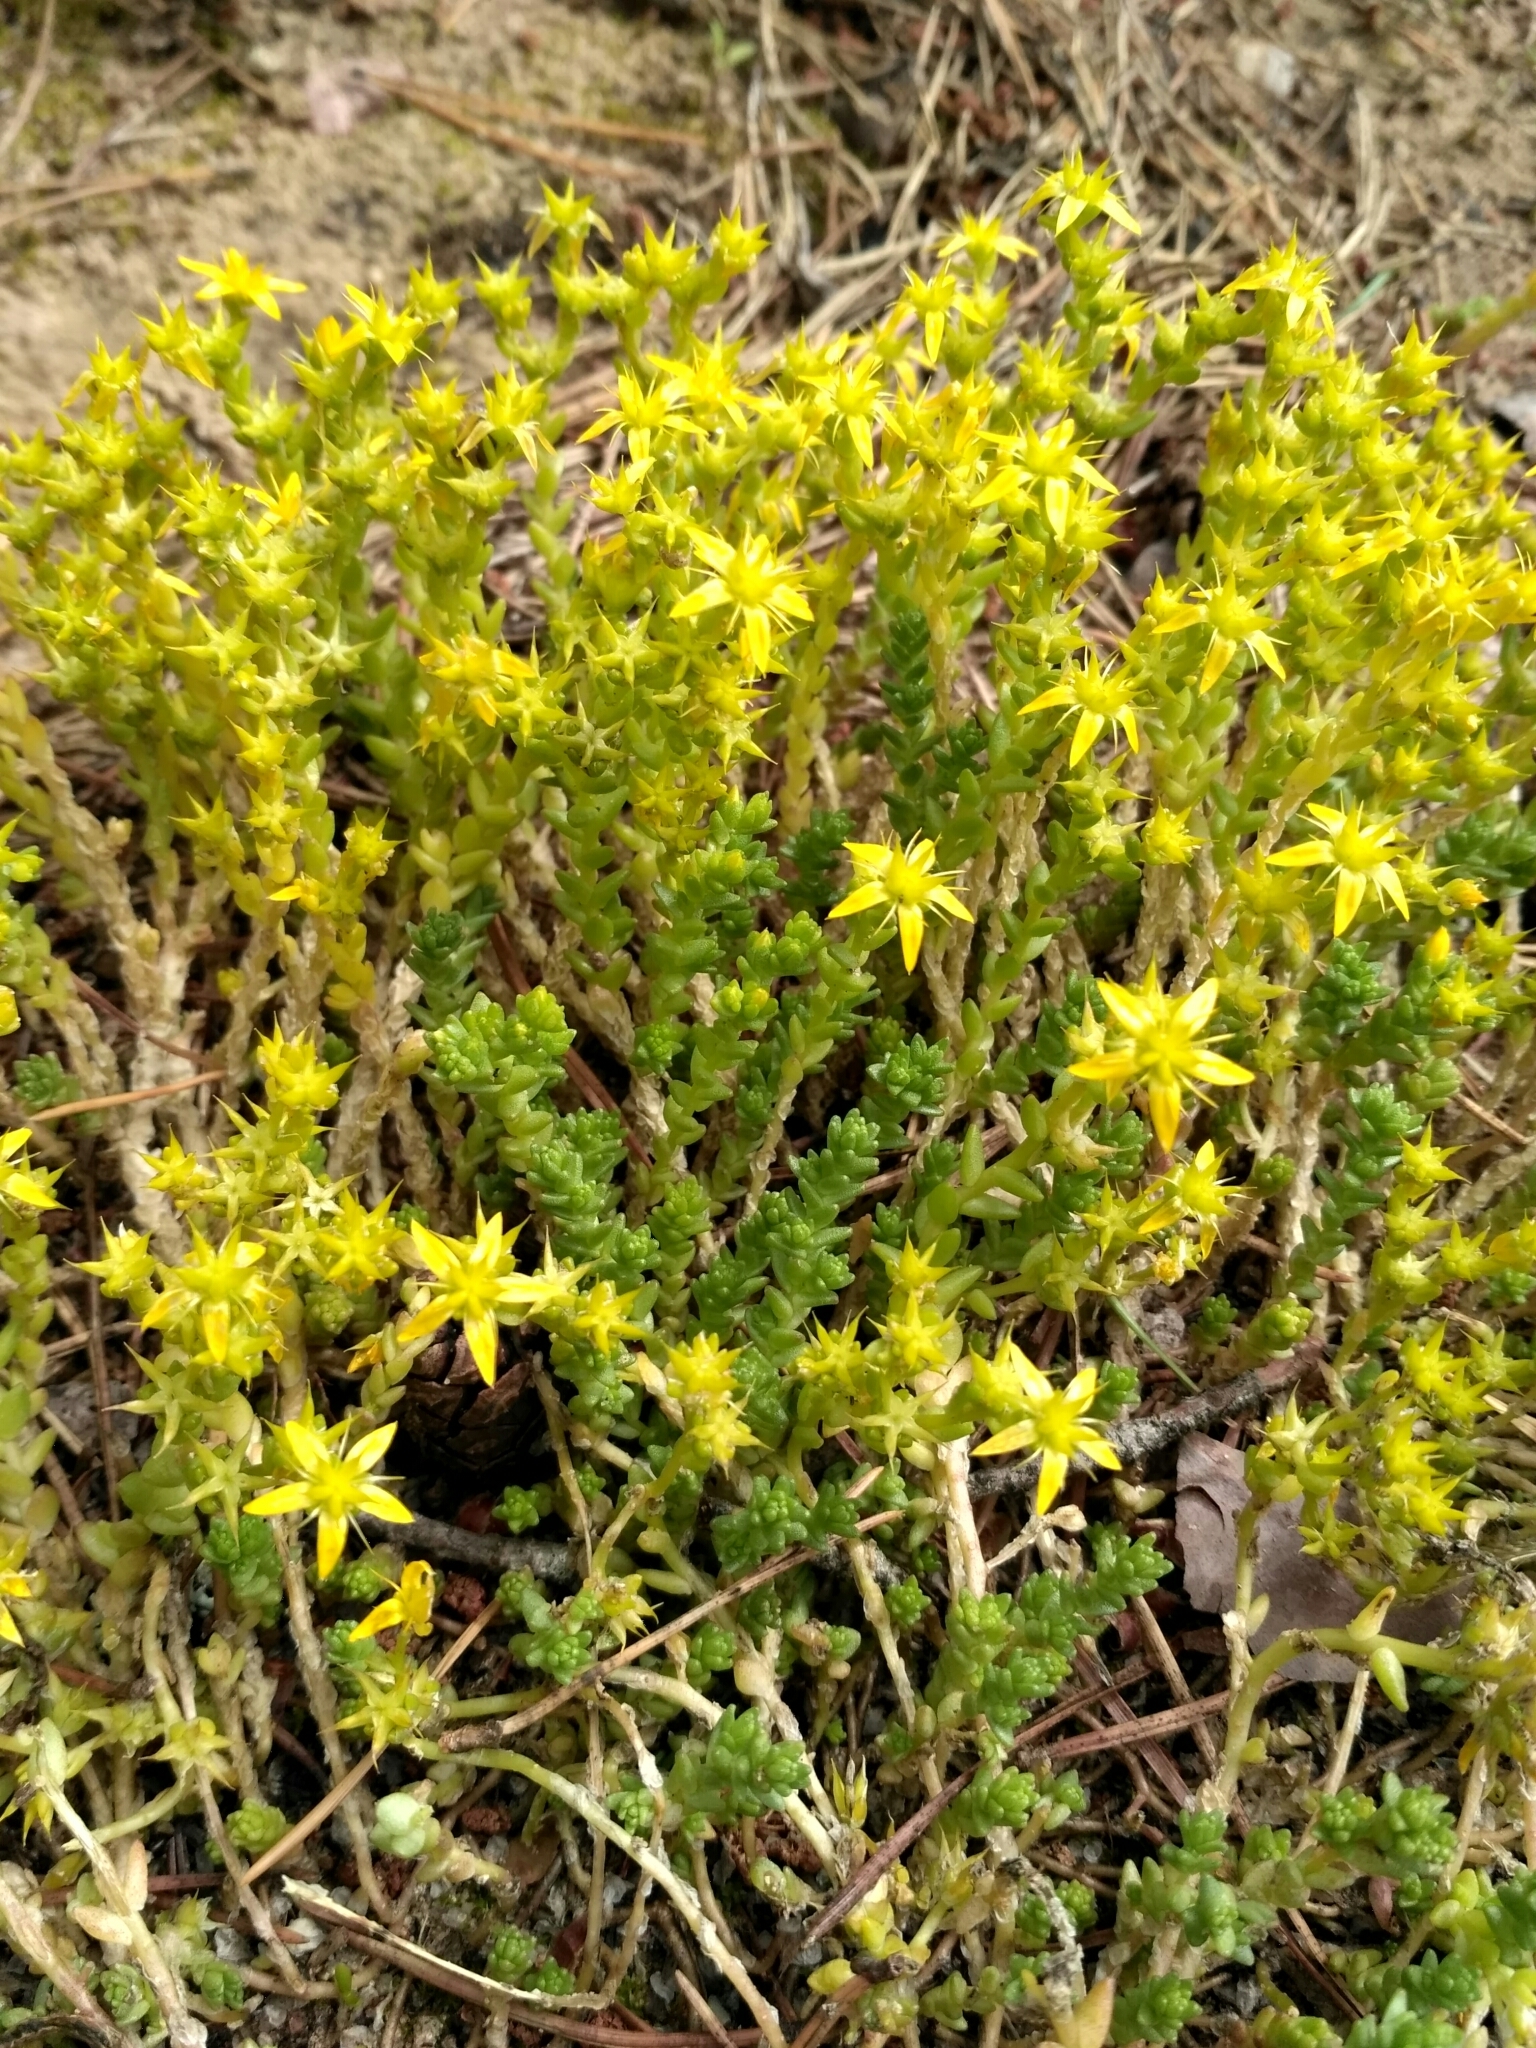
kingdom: Plantae
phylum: Tracheophyta
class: Magnoliopsida
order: Saxifragales
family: Crassulaceae
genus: Sedum
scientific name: Sedum acre
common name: Biting stonecrop
